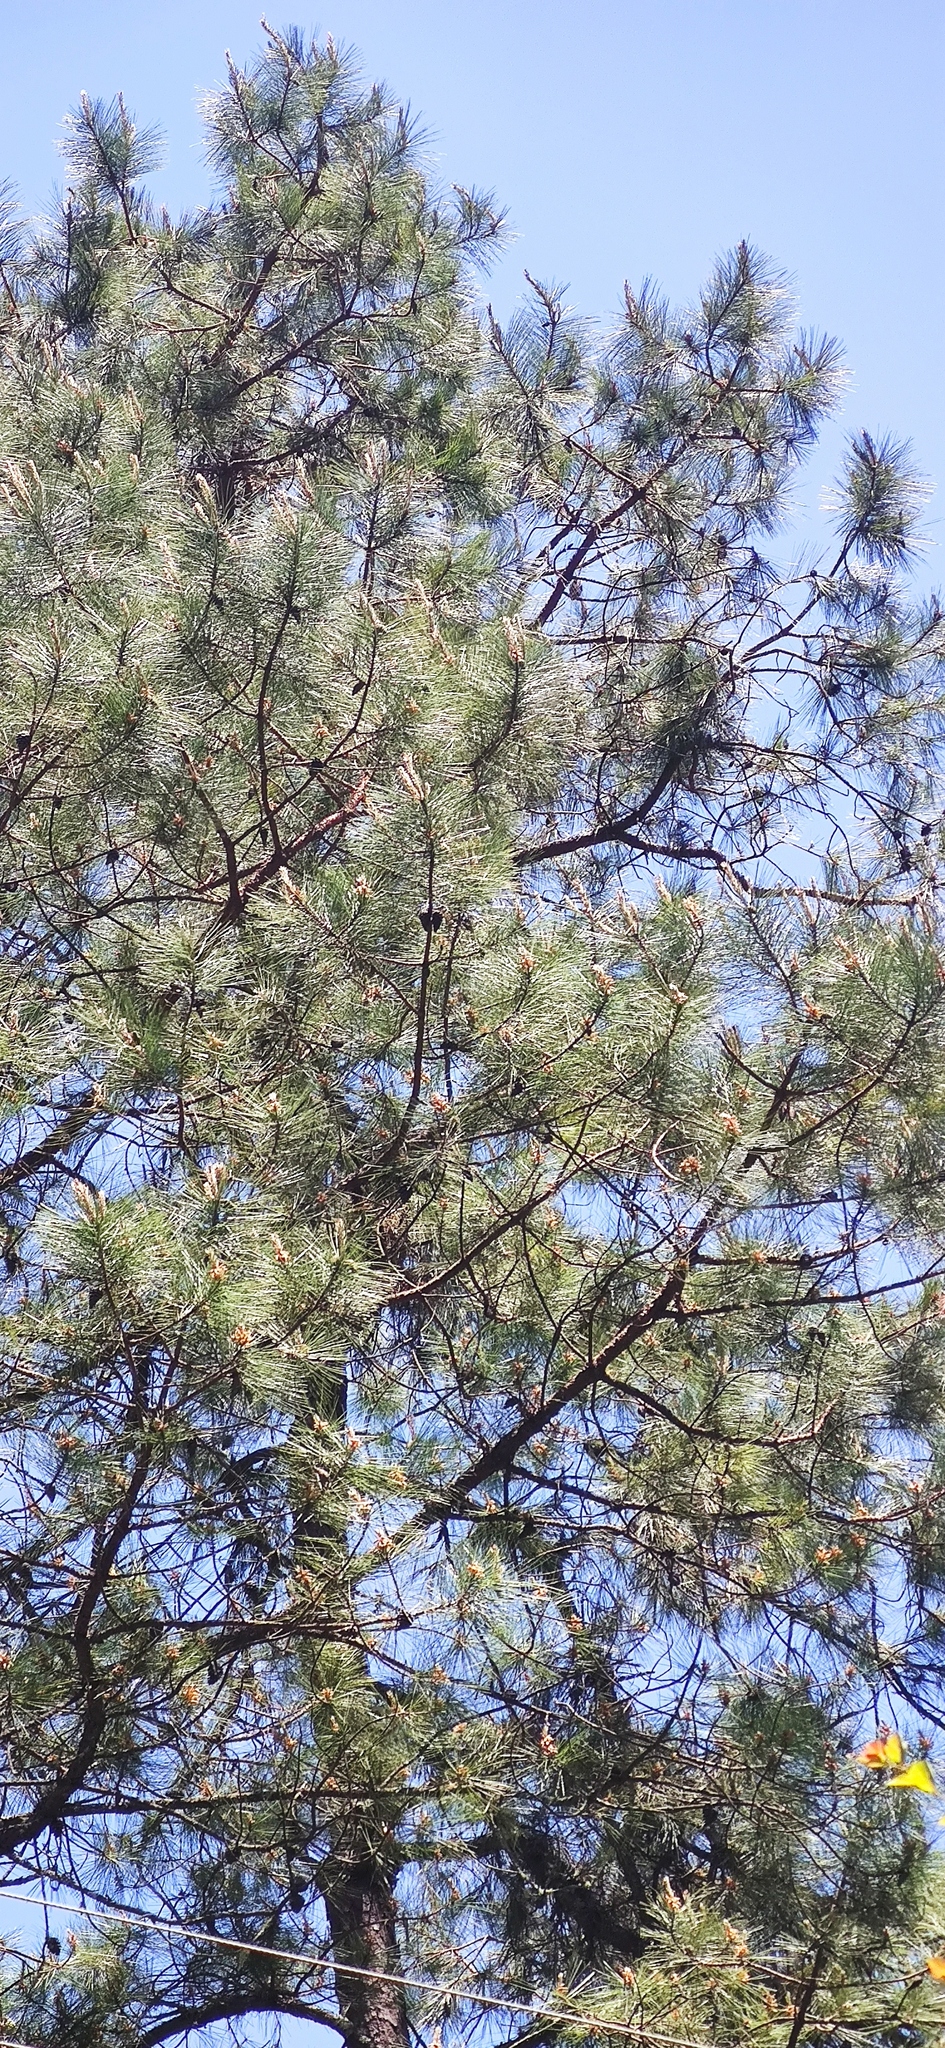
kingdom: Plantae
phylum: Tracheophyta
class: Pinopsida
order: Pinales
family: Pinaceae
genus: Pinus
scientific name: Pinus teocote
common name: Aztec pine
